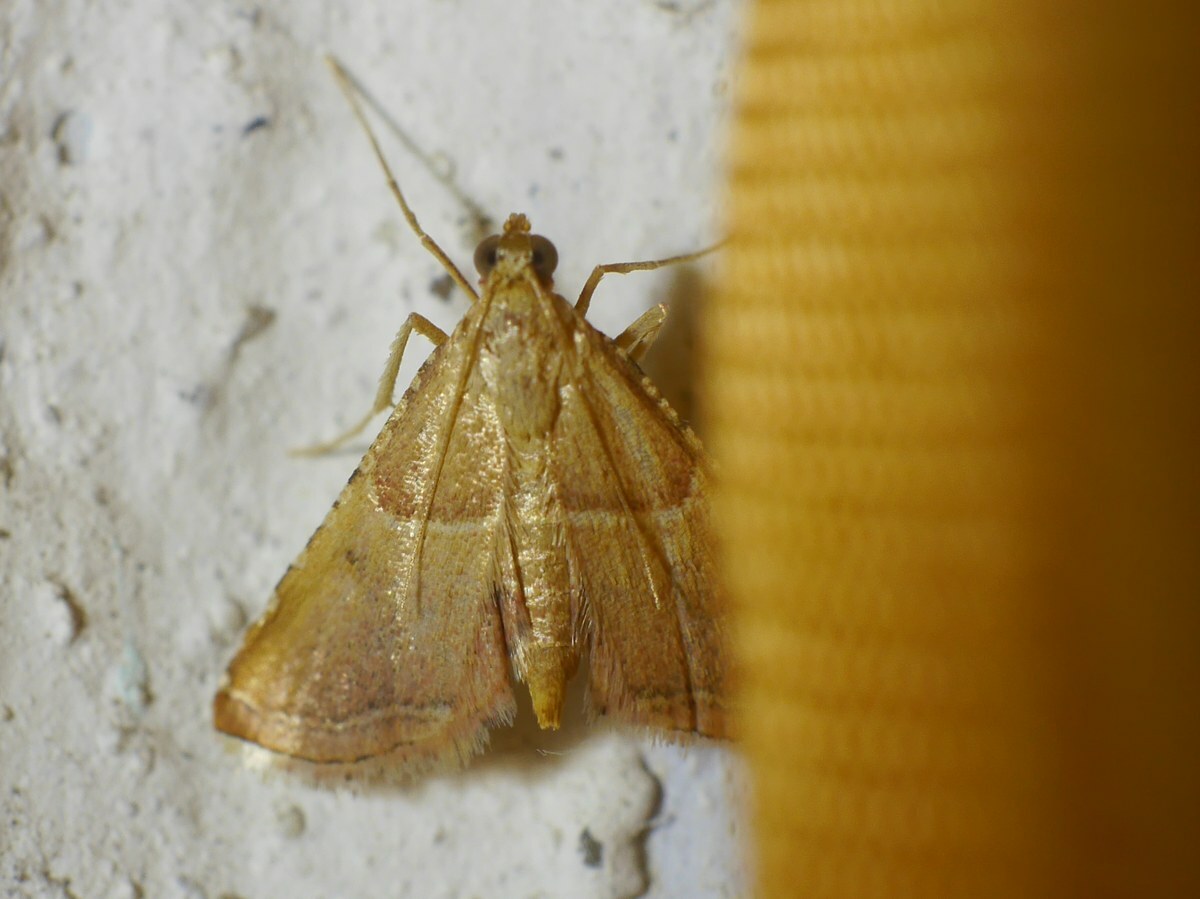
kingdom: Animalia
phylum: Arthropoda
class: Insecta
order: Lepidoptera
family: Pyralidae
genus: Endotricha
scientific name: Endotricha flammealis
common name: Rosy tabby
